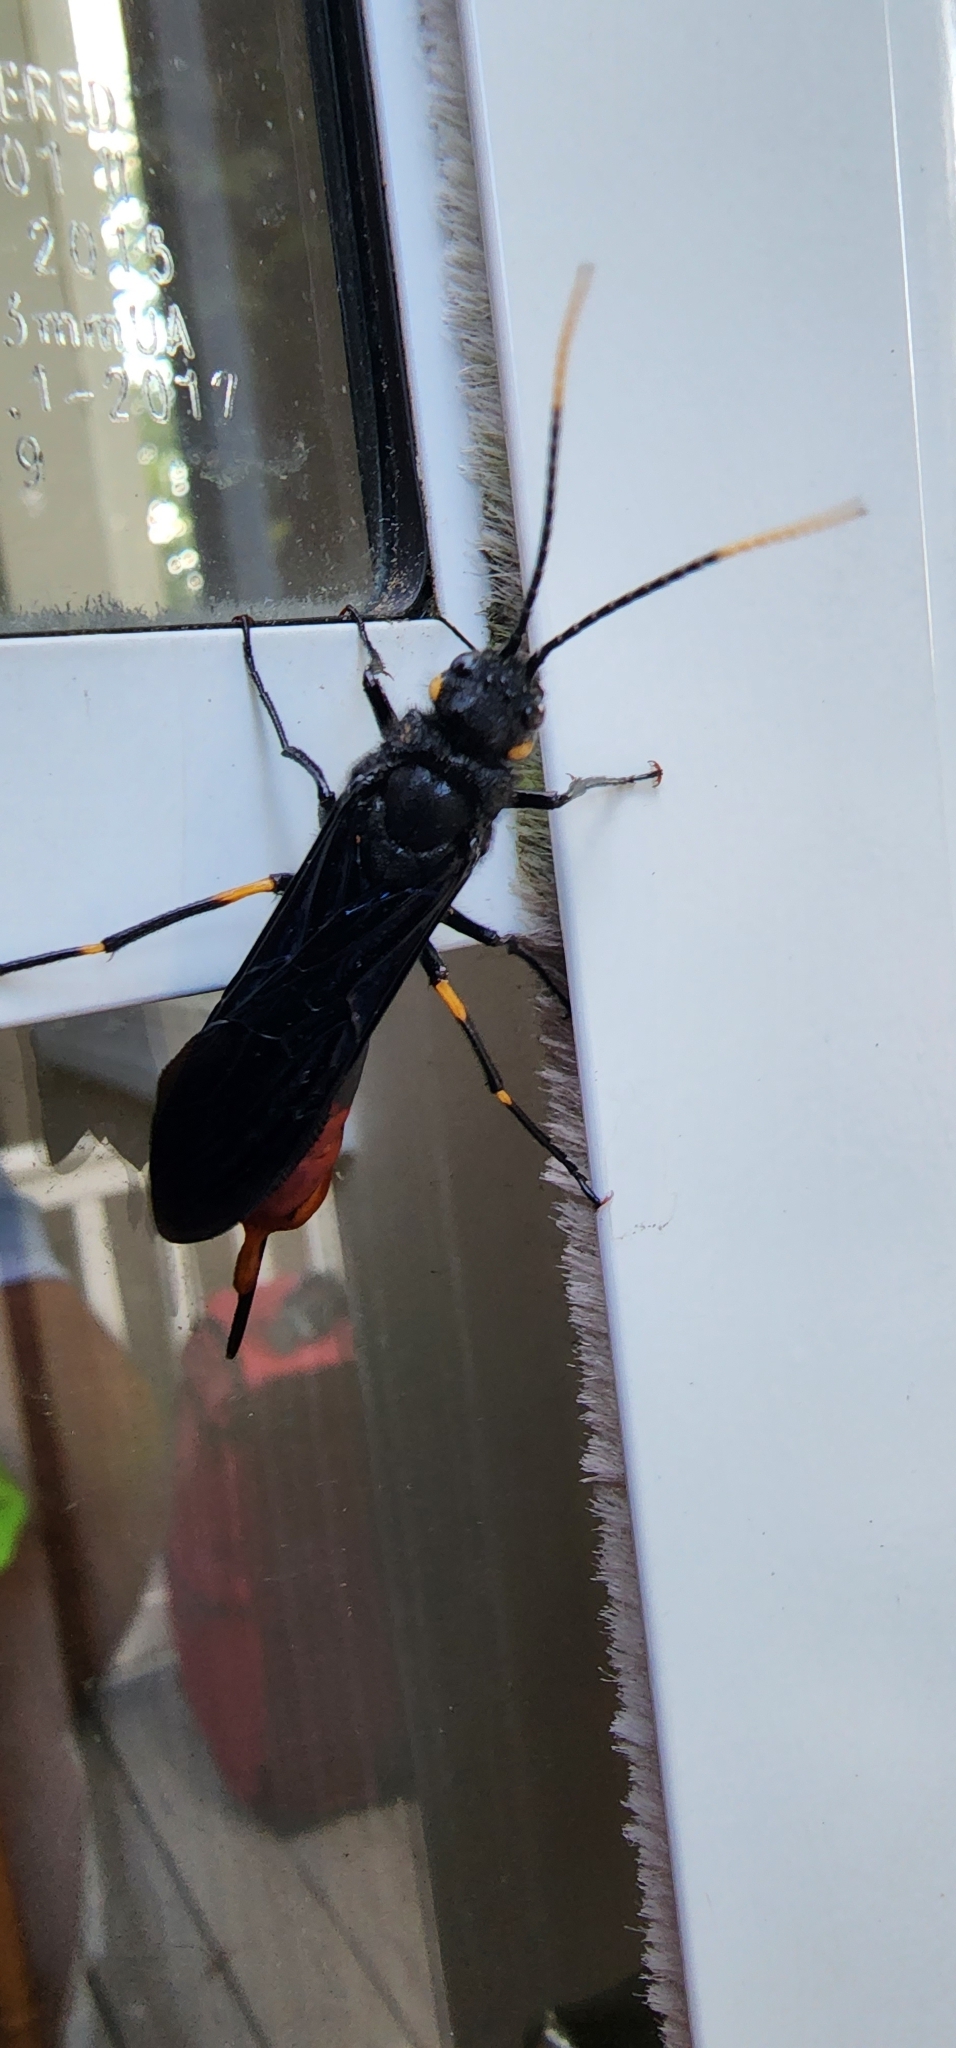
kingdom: Animalia
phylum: Arthropoda
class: Insecta
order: Hymenoptera
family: Siricidae
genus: Urocerus
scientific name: Urocerus cressoni
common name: Black-and-red horntail
